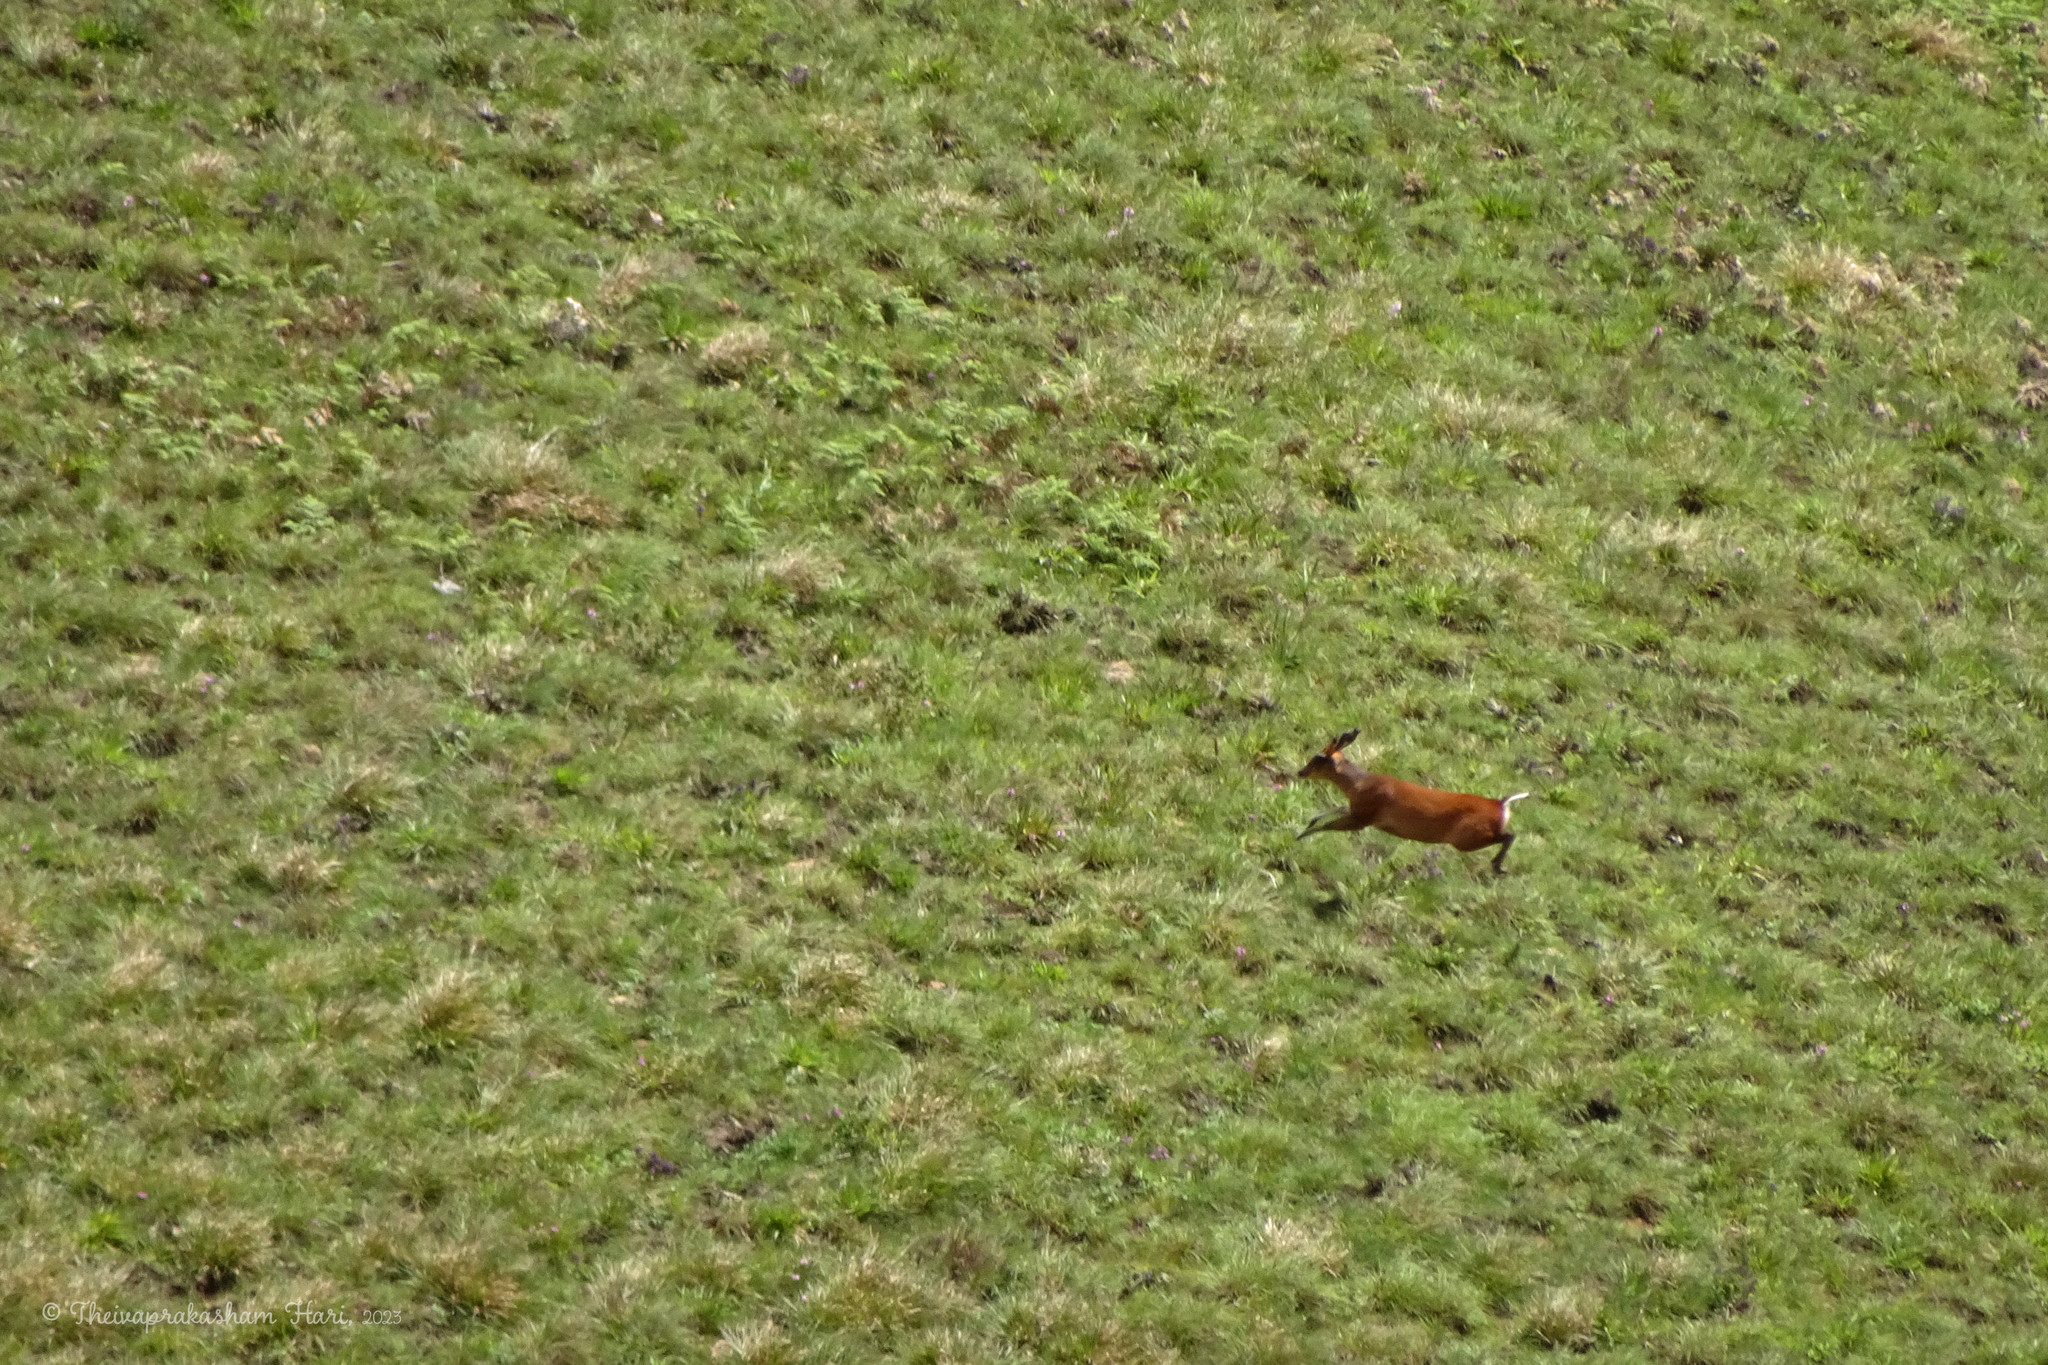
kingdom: Animalia
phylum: Chordata
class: Mammalia
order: Artiodactyla
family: Cervidae
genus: Muntiacus
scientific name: Muntiacus muntjak
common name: Indian muntjac
